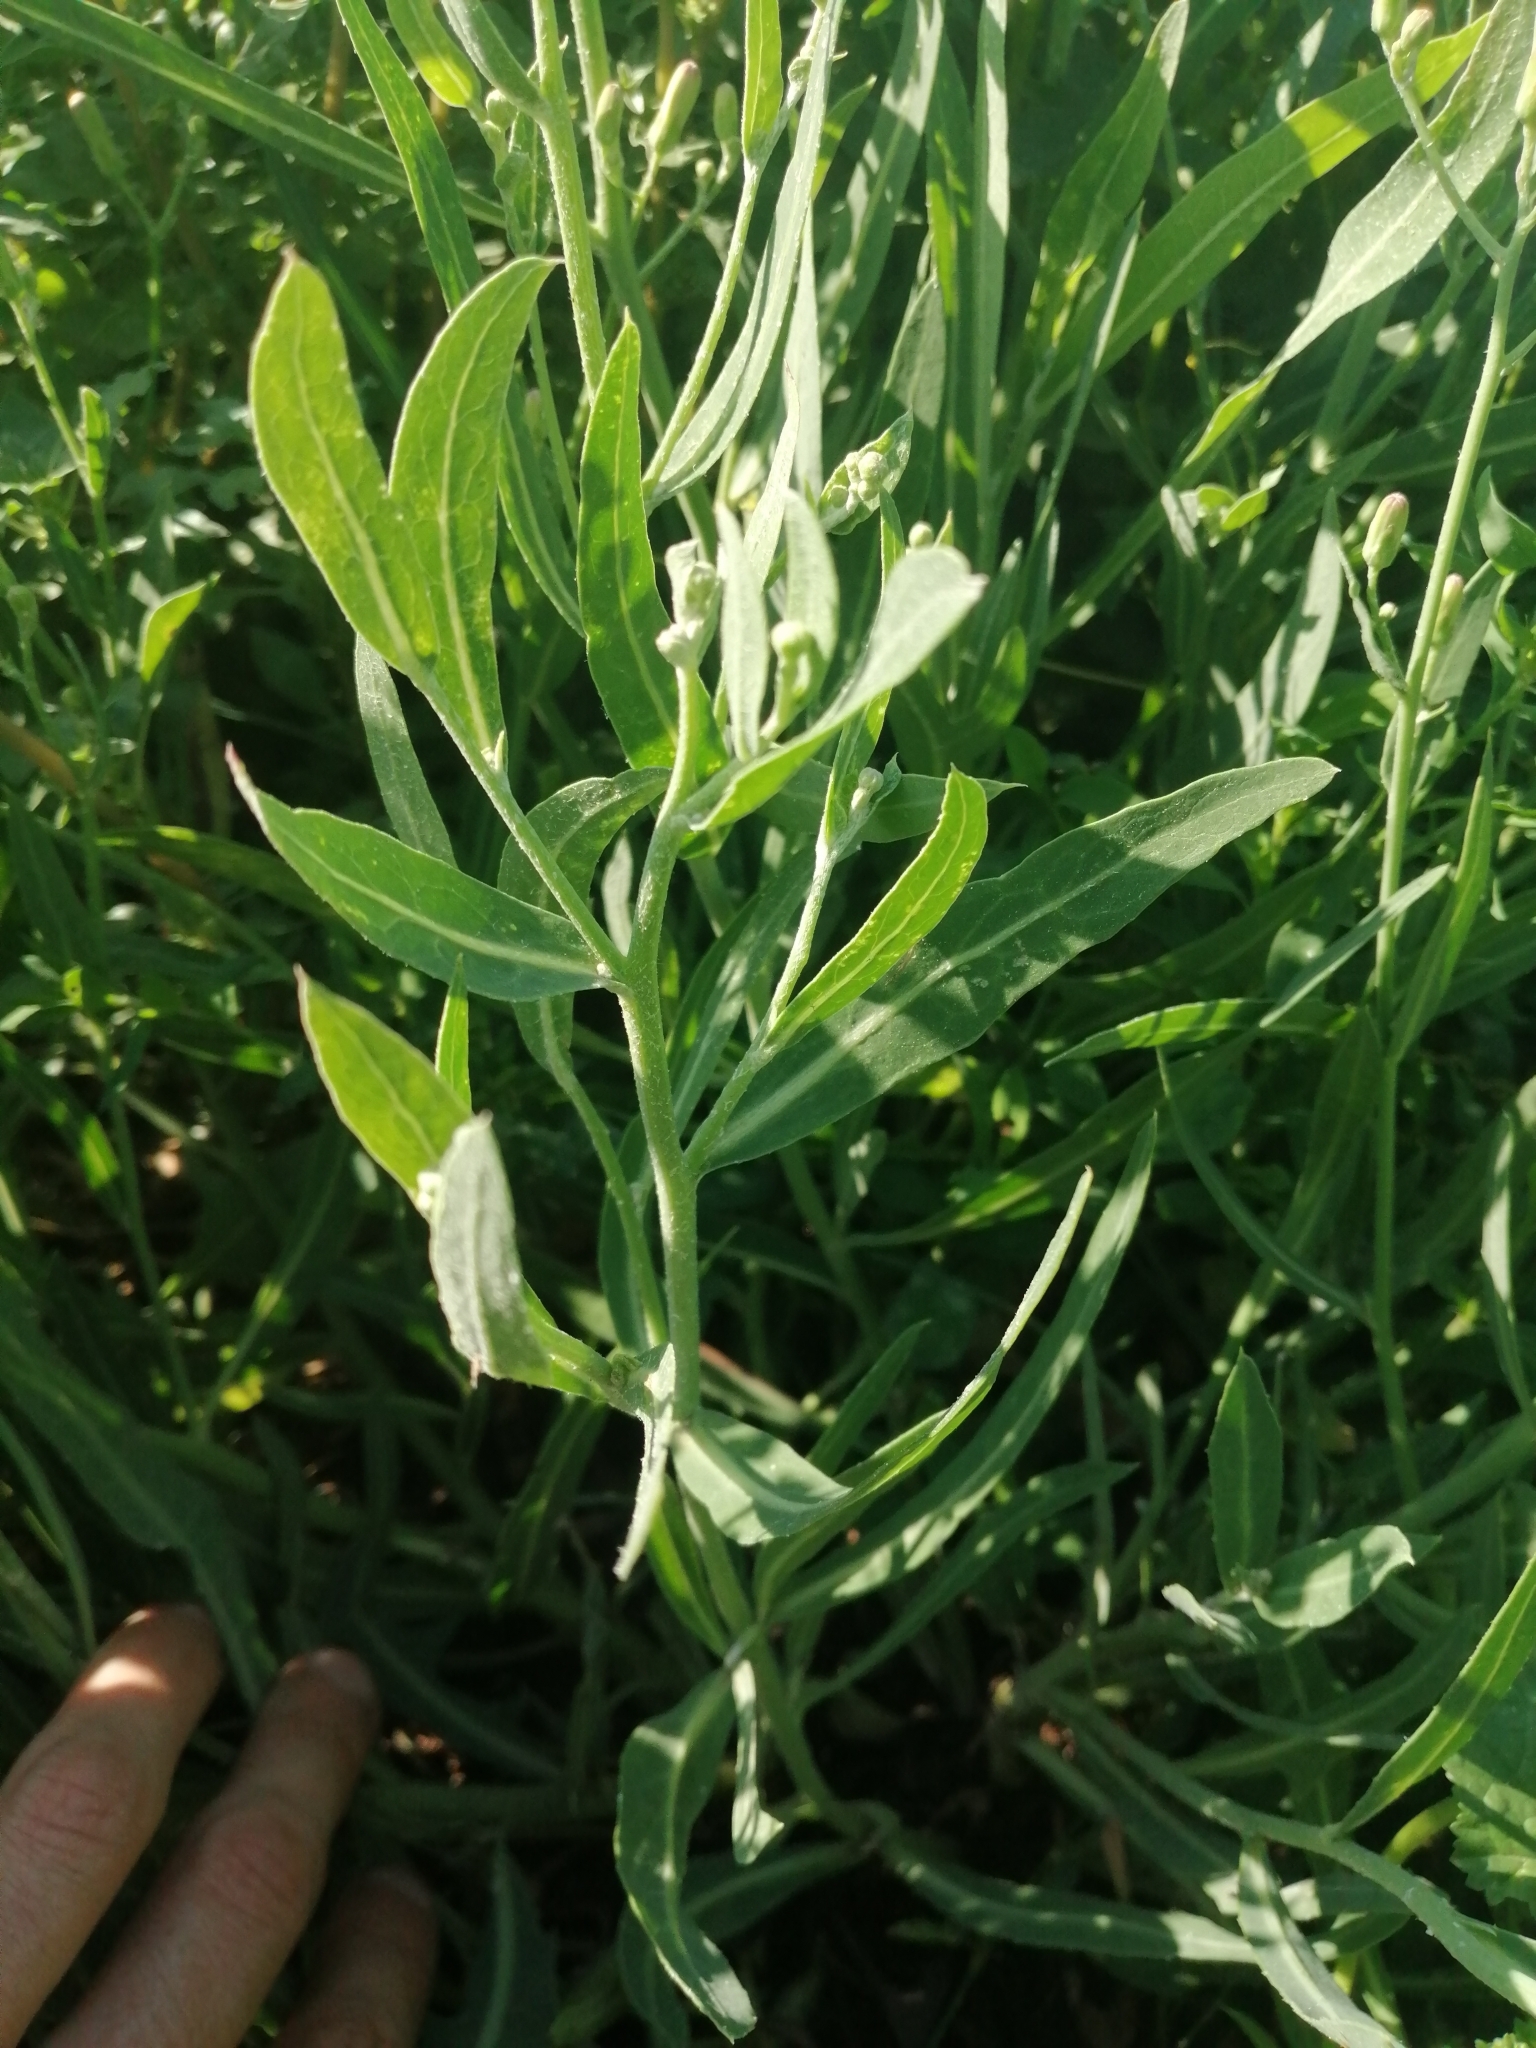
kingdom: Plantae
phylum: Tracheophyta
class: Magnoliopsida
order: Asterales
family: Asteraceae
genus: Lactuca
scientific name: Lactuca tatarica
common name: Blue lettuce
